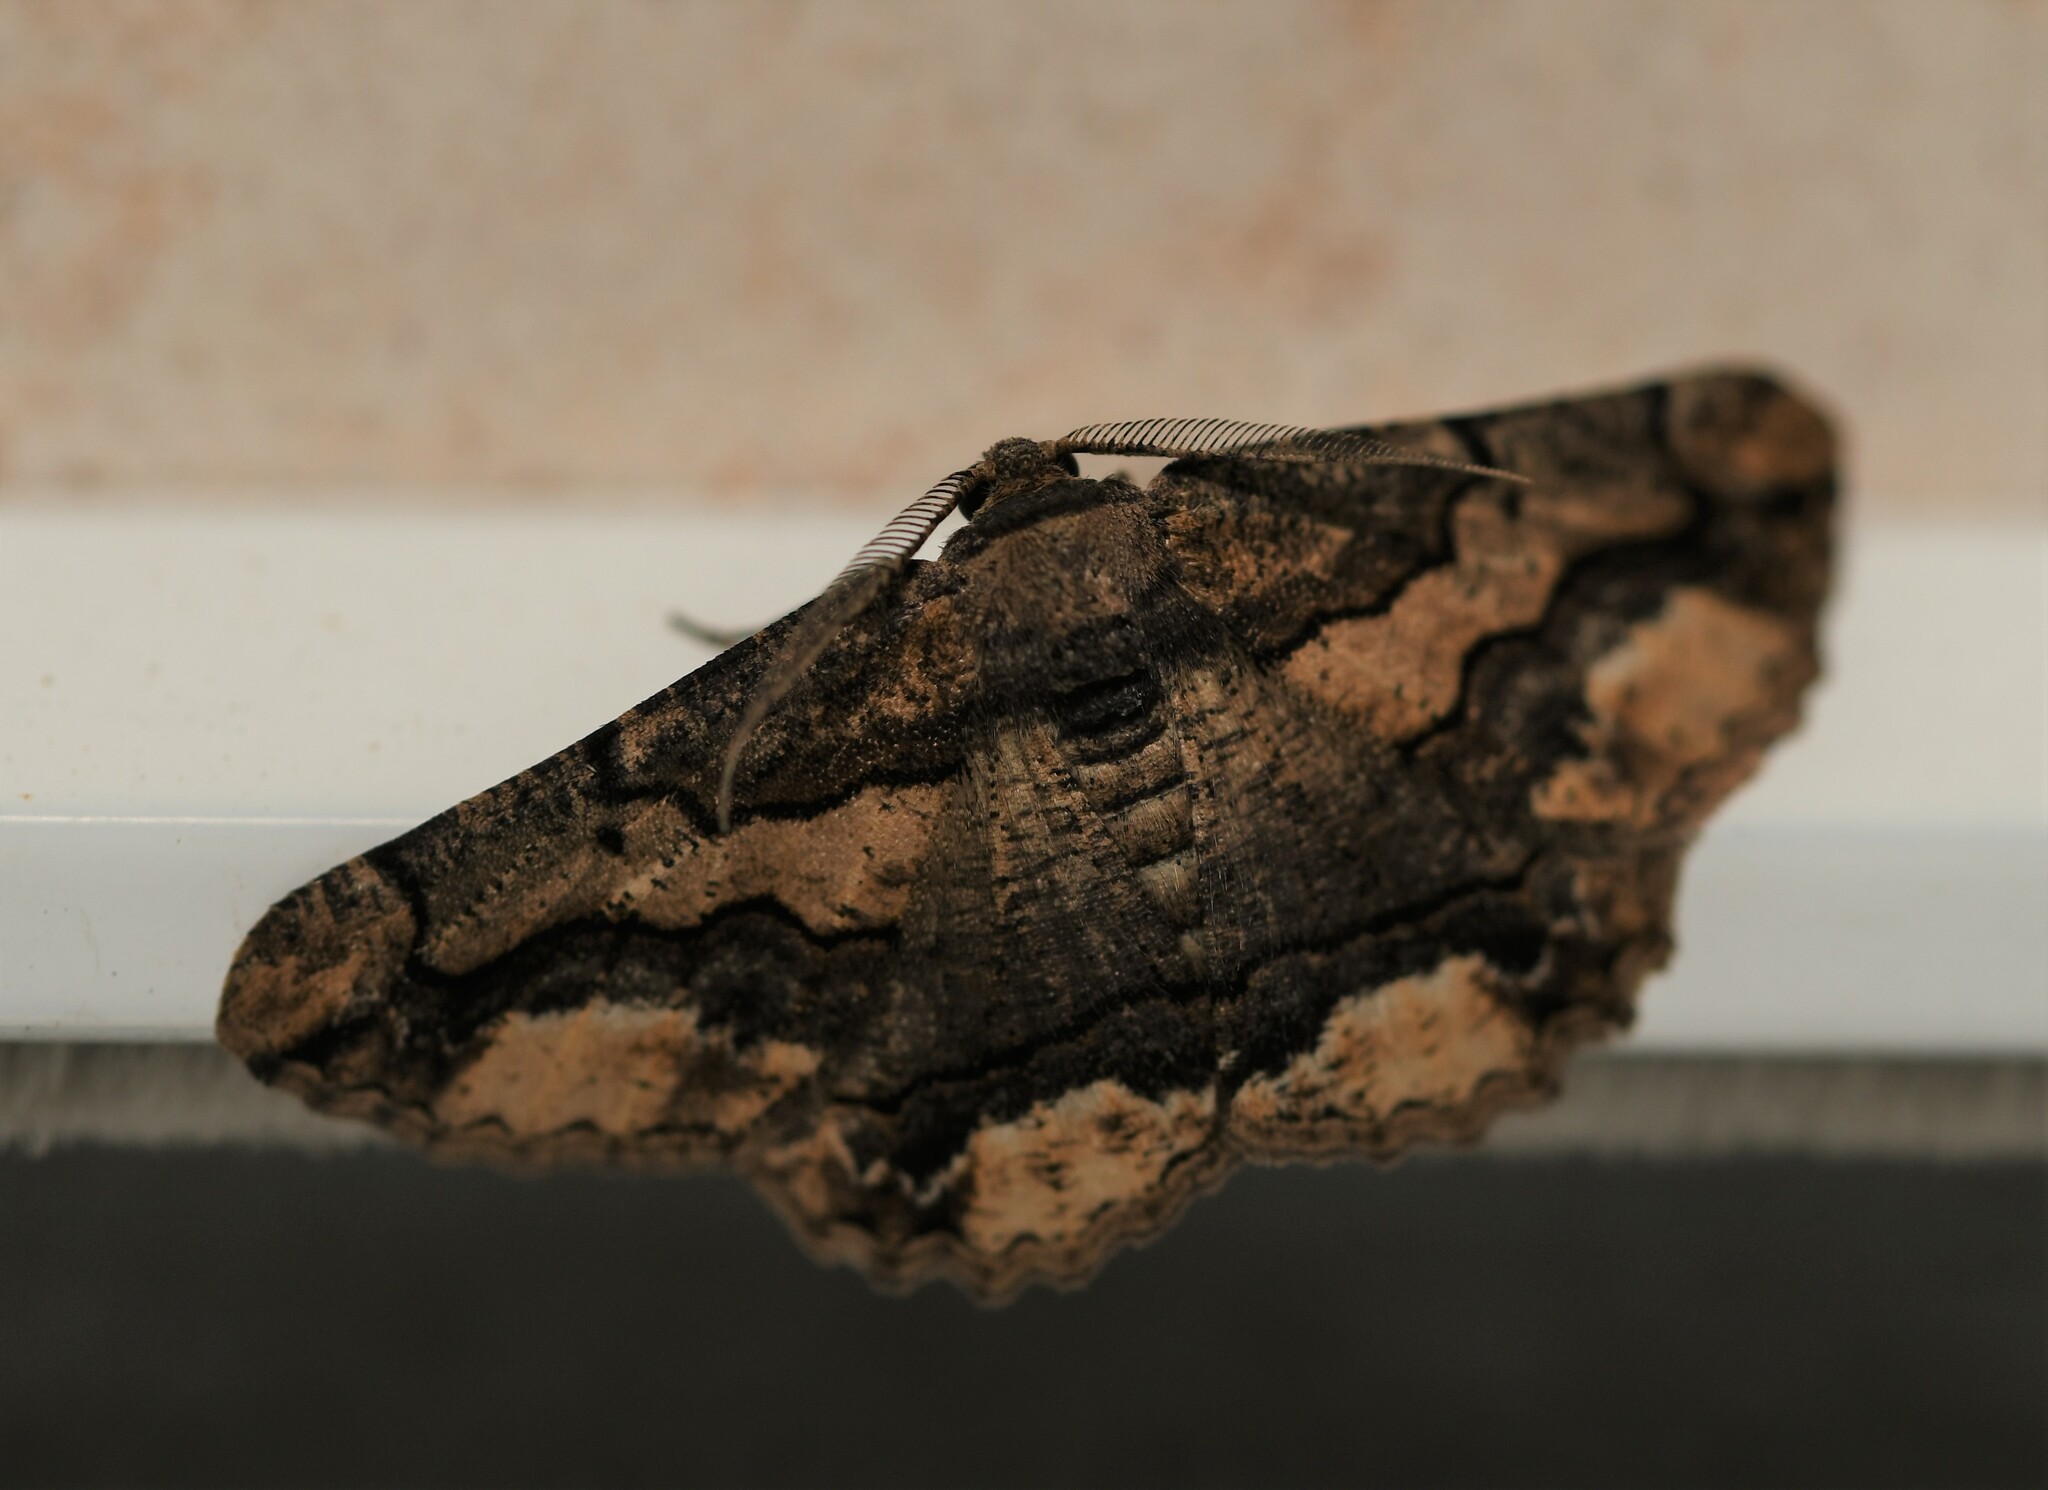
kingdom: Animalia
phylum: Arthropoda
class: Insecta
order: Lepidoptera
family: Geometridae
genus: Menophra
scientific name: Menophra japygiaria
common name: Brassy waved umber
